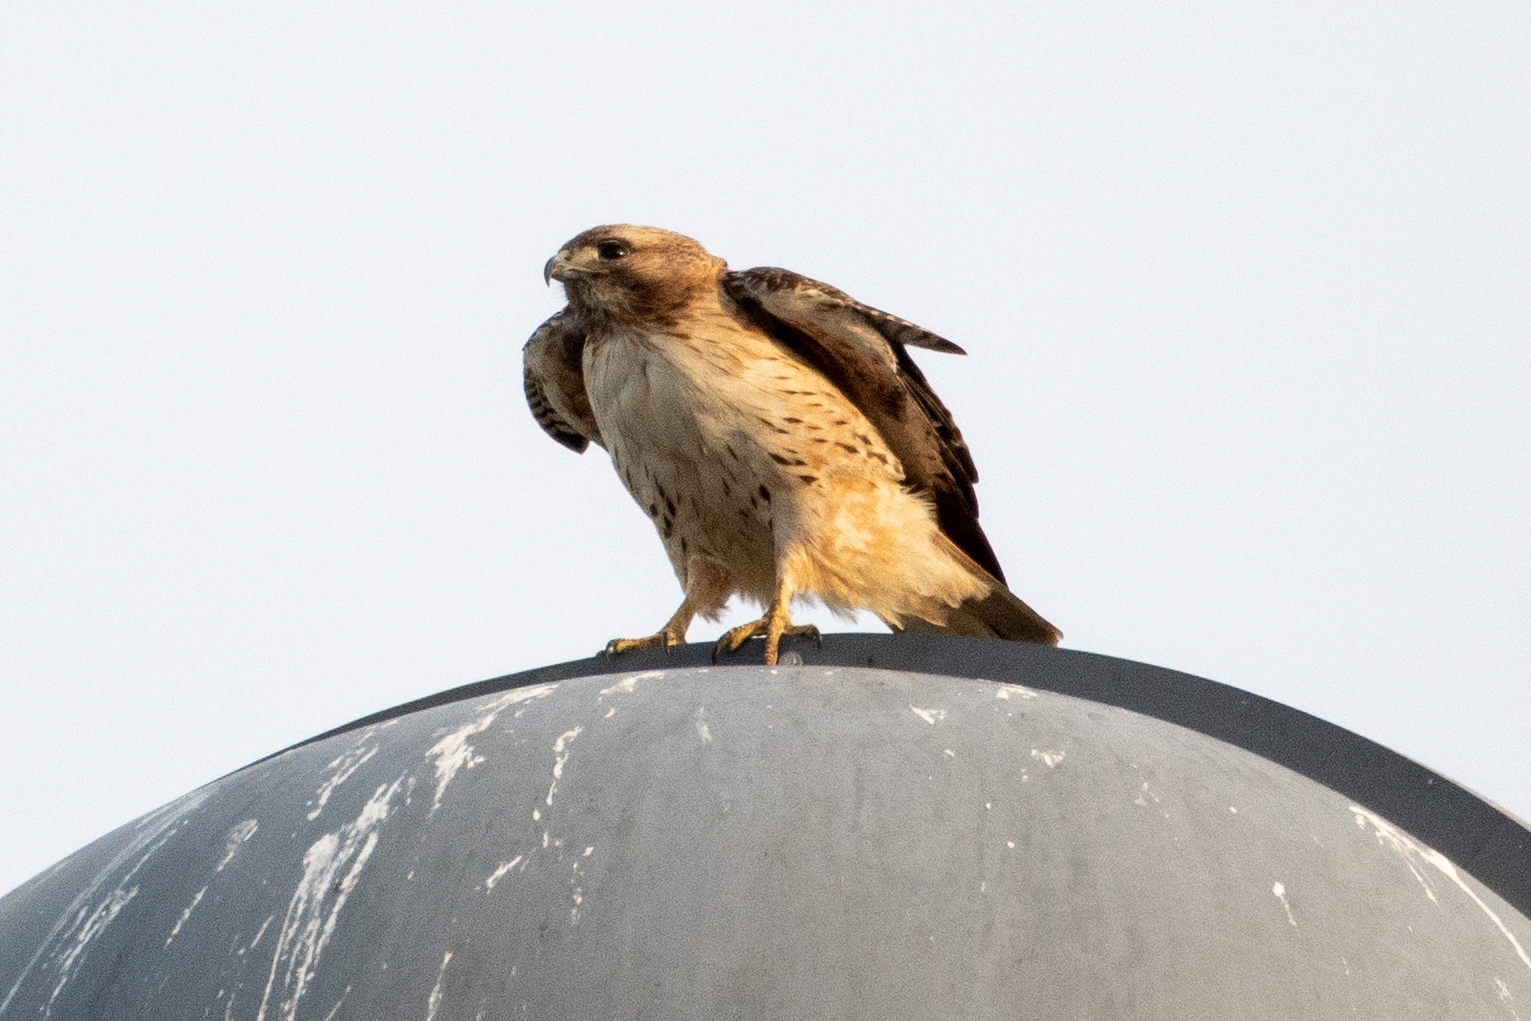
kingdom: Animalia
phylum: Chordata
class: Aves
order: Accipitriformes
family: Accipitridae
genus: Buteo
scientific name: Buteo jamaicensis
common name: Red-tailed hawk
